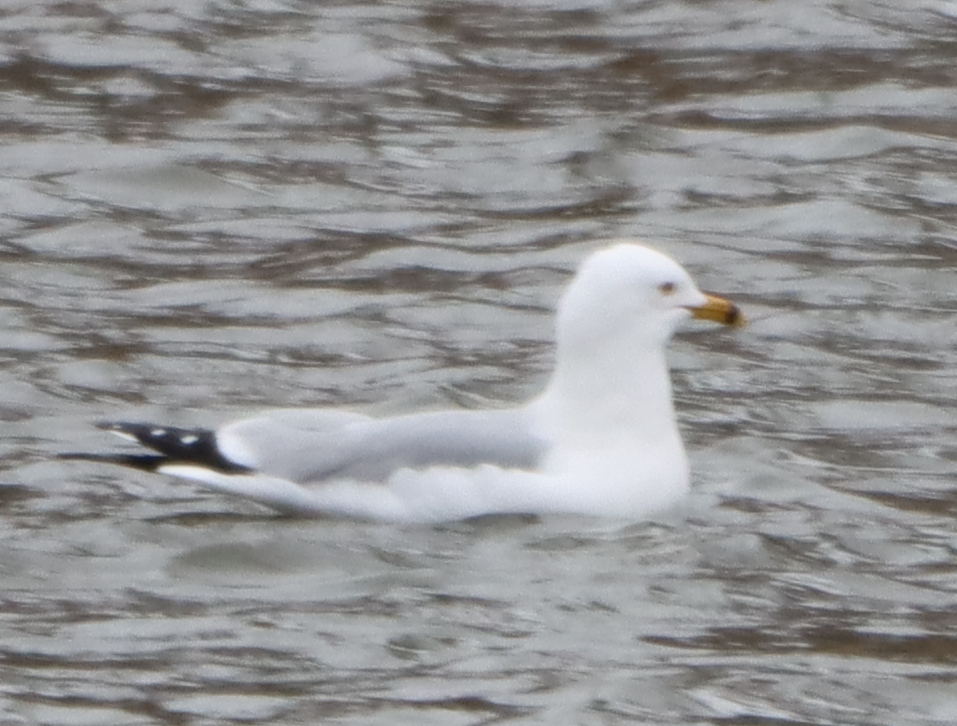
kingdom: Animalia
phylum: Chordata
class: Aves
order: Charadriiformes
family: Laridae
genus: Larus
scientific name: Larus delawarensis
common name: Ring-billed gull
